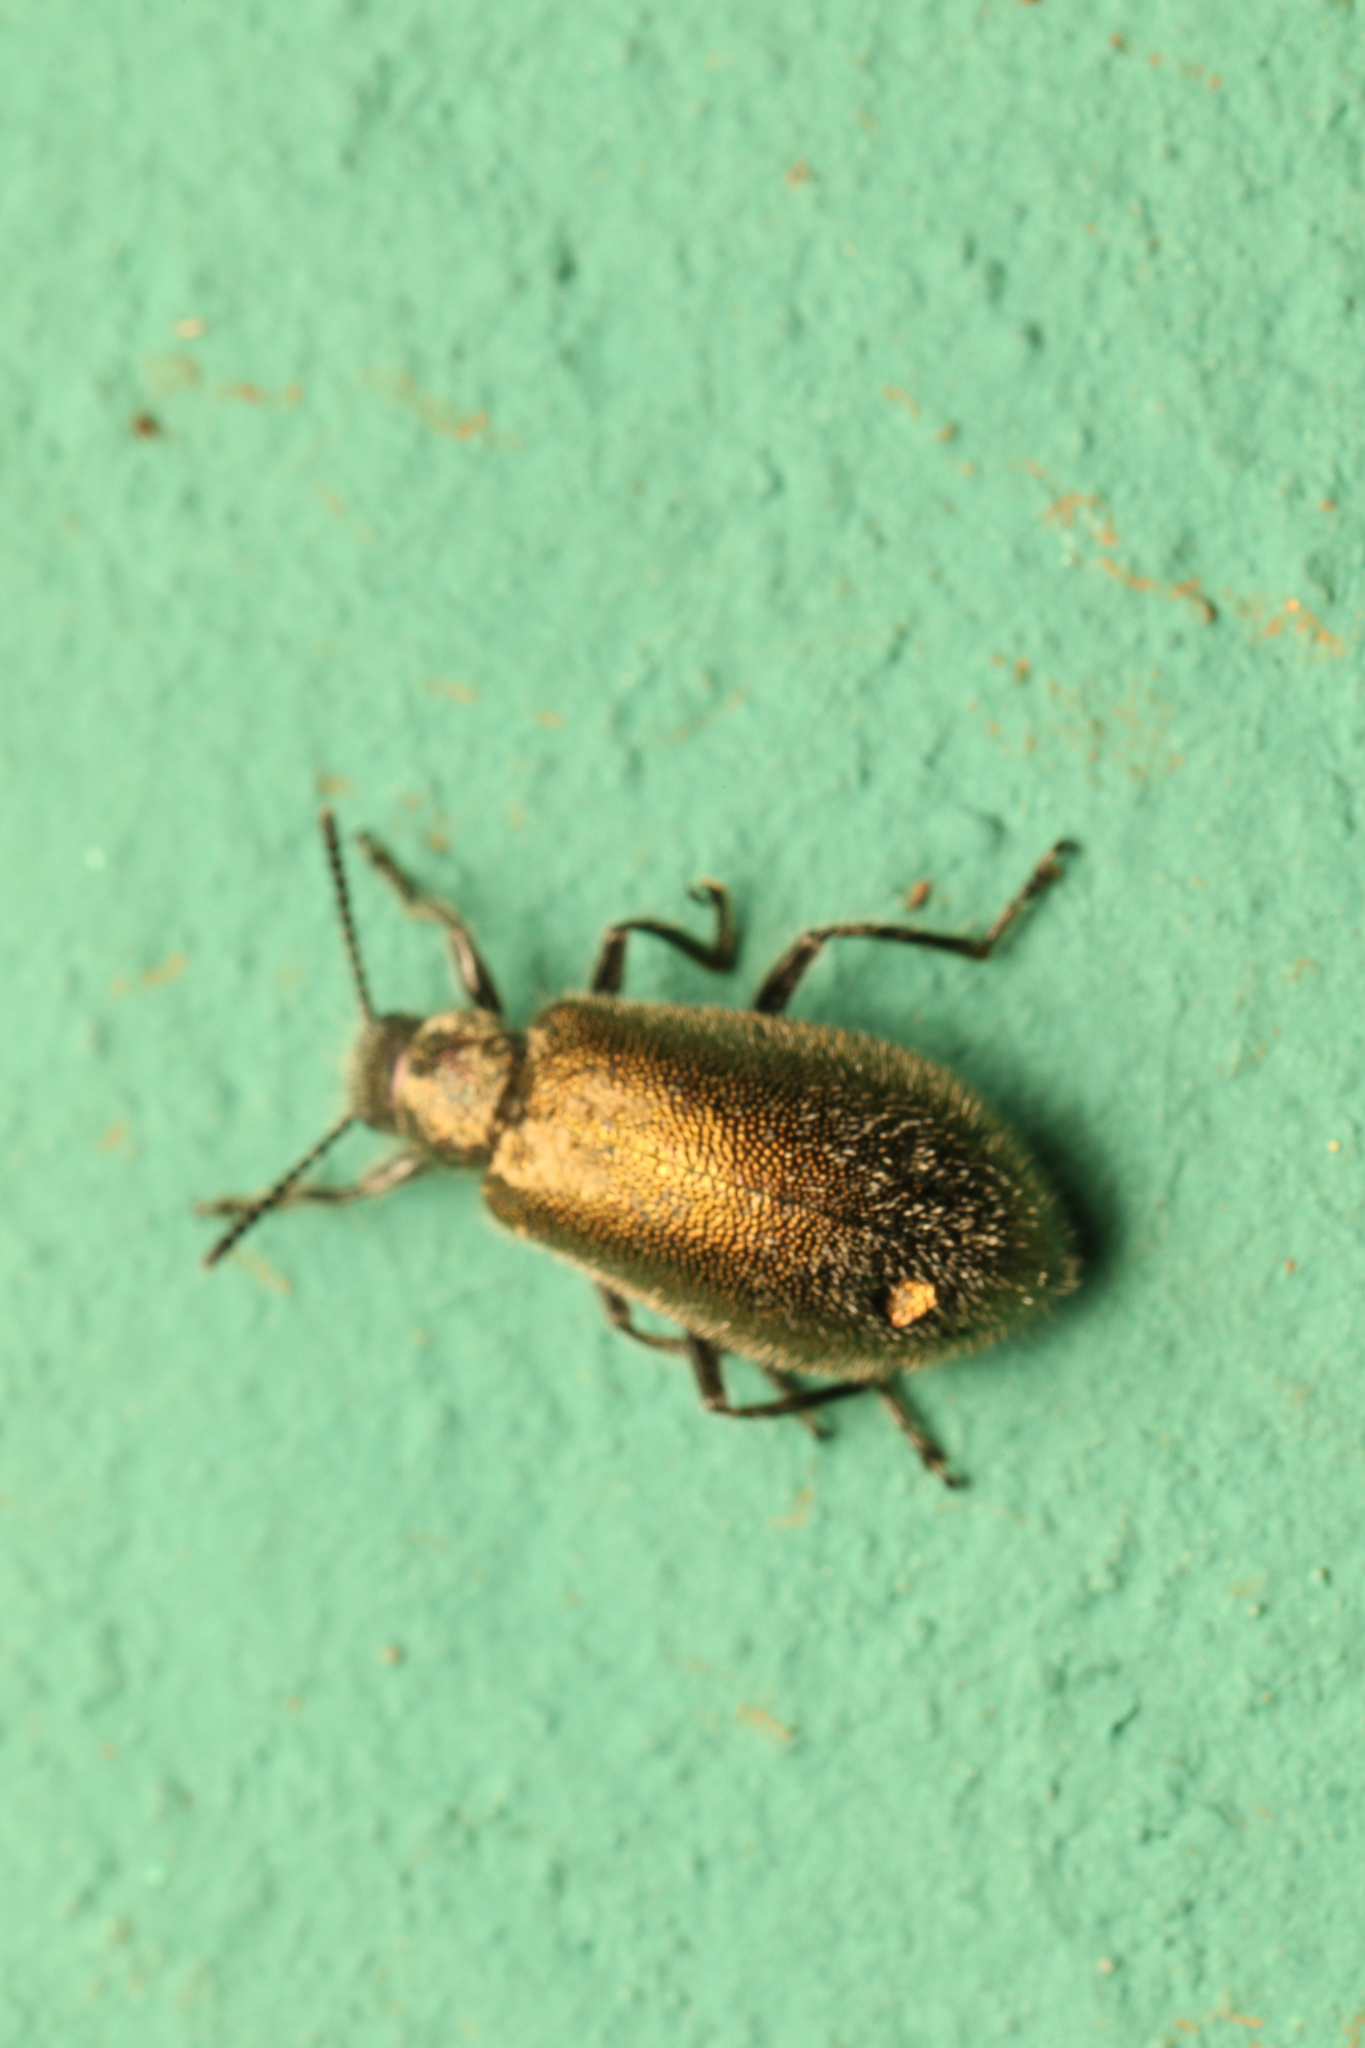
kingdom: Animalia
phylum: Arthropoda
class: Insecta
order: Coleoptera
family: Tenebrionidae
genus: Lagria
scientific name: Lagria villosa
